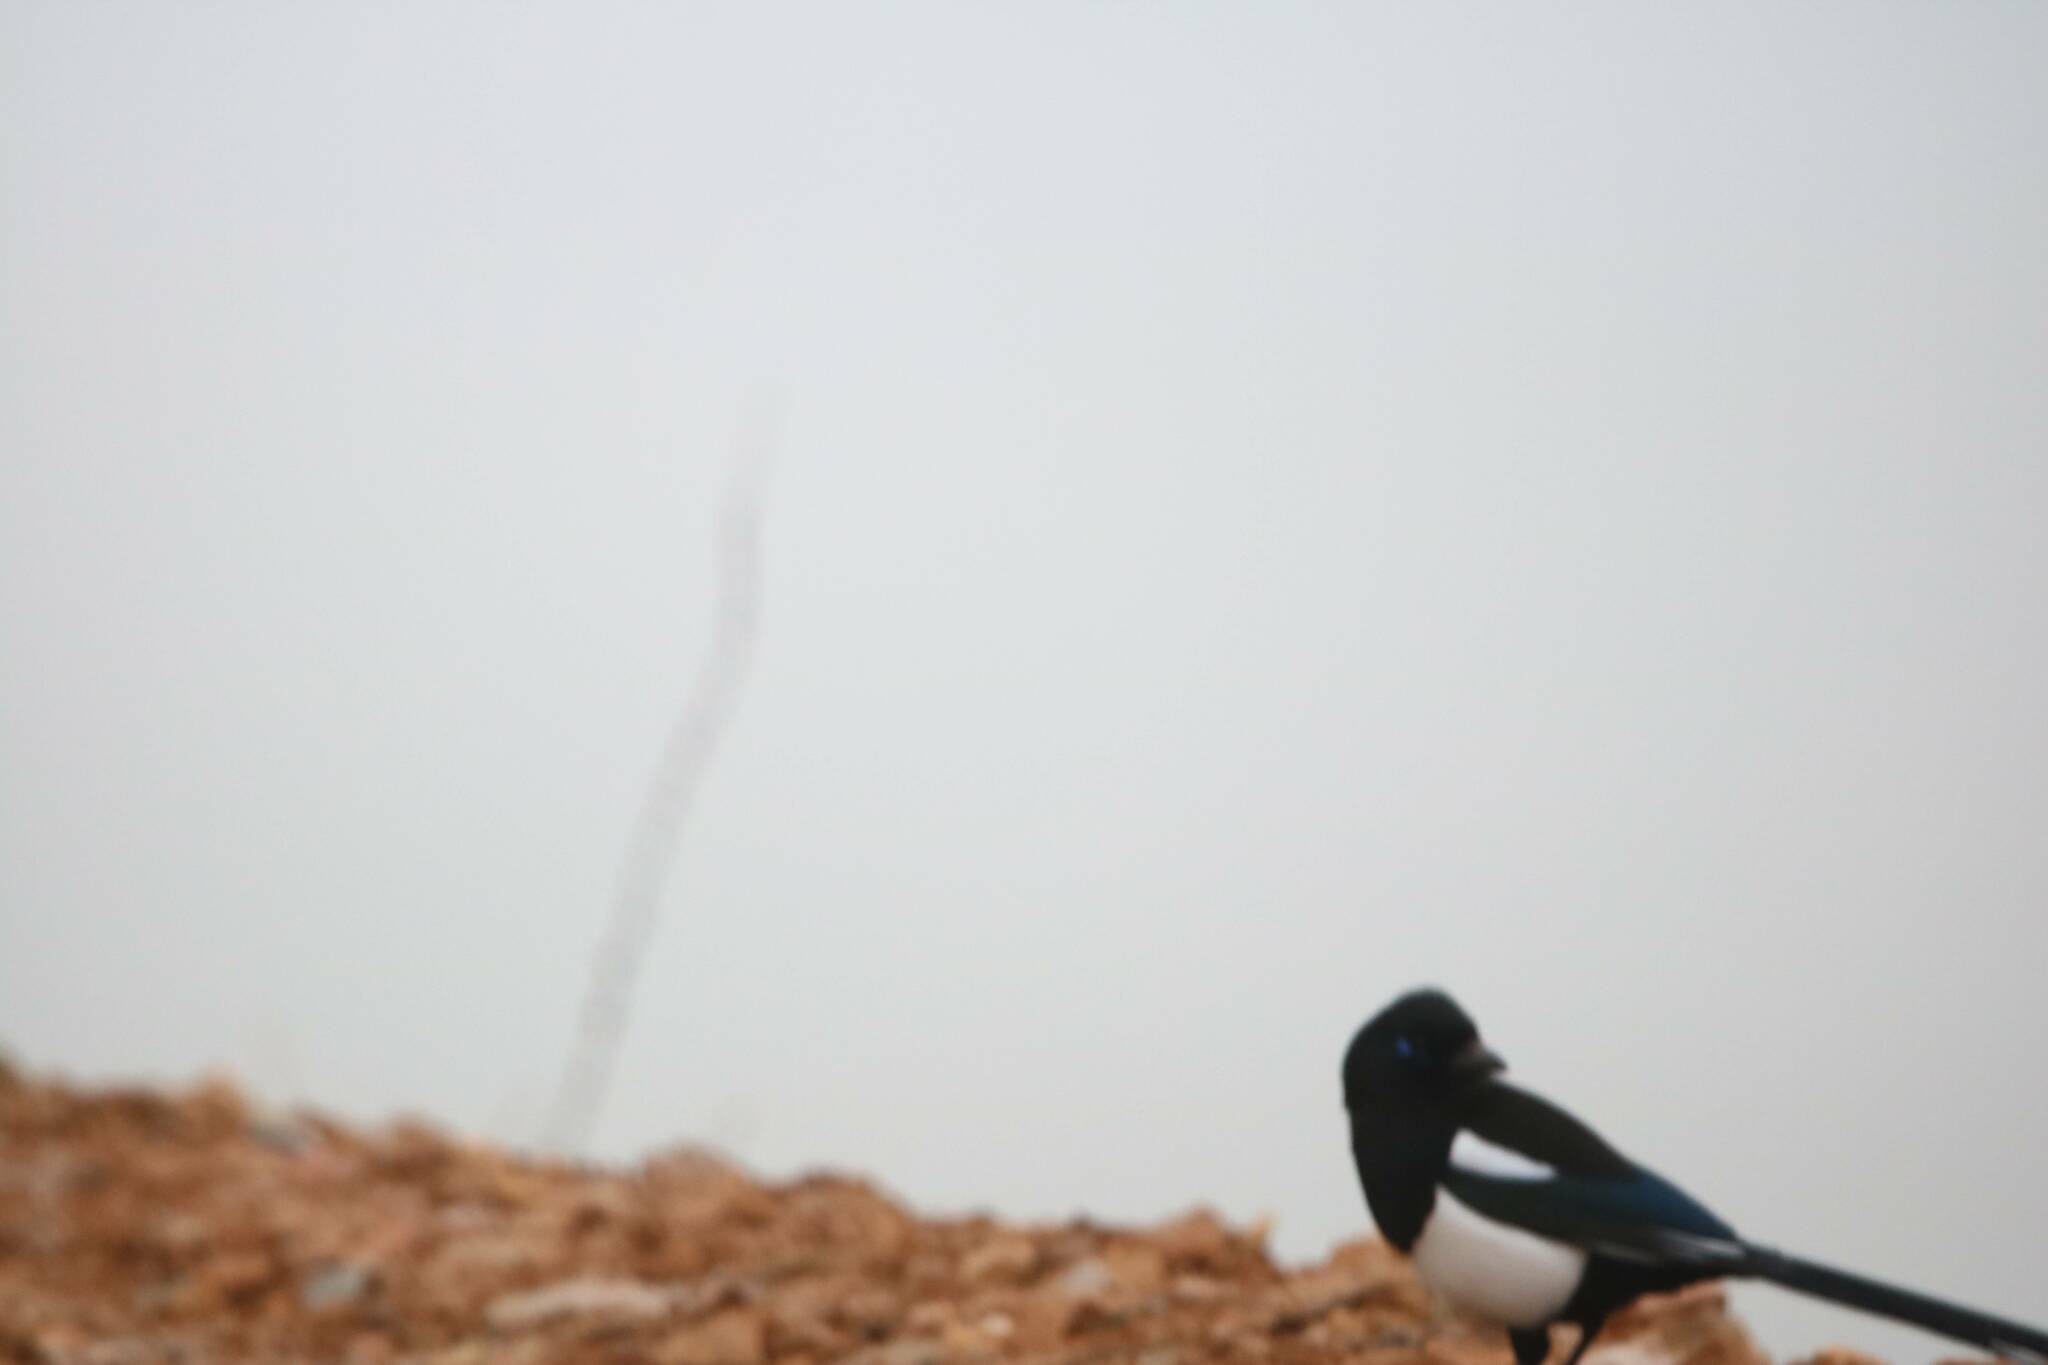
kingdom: Animalia
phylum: Chordata
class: Aves
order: Passeriformes
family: Corvidae
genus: Pica
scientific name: Pica mauritanica
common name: Maghreb magpie
